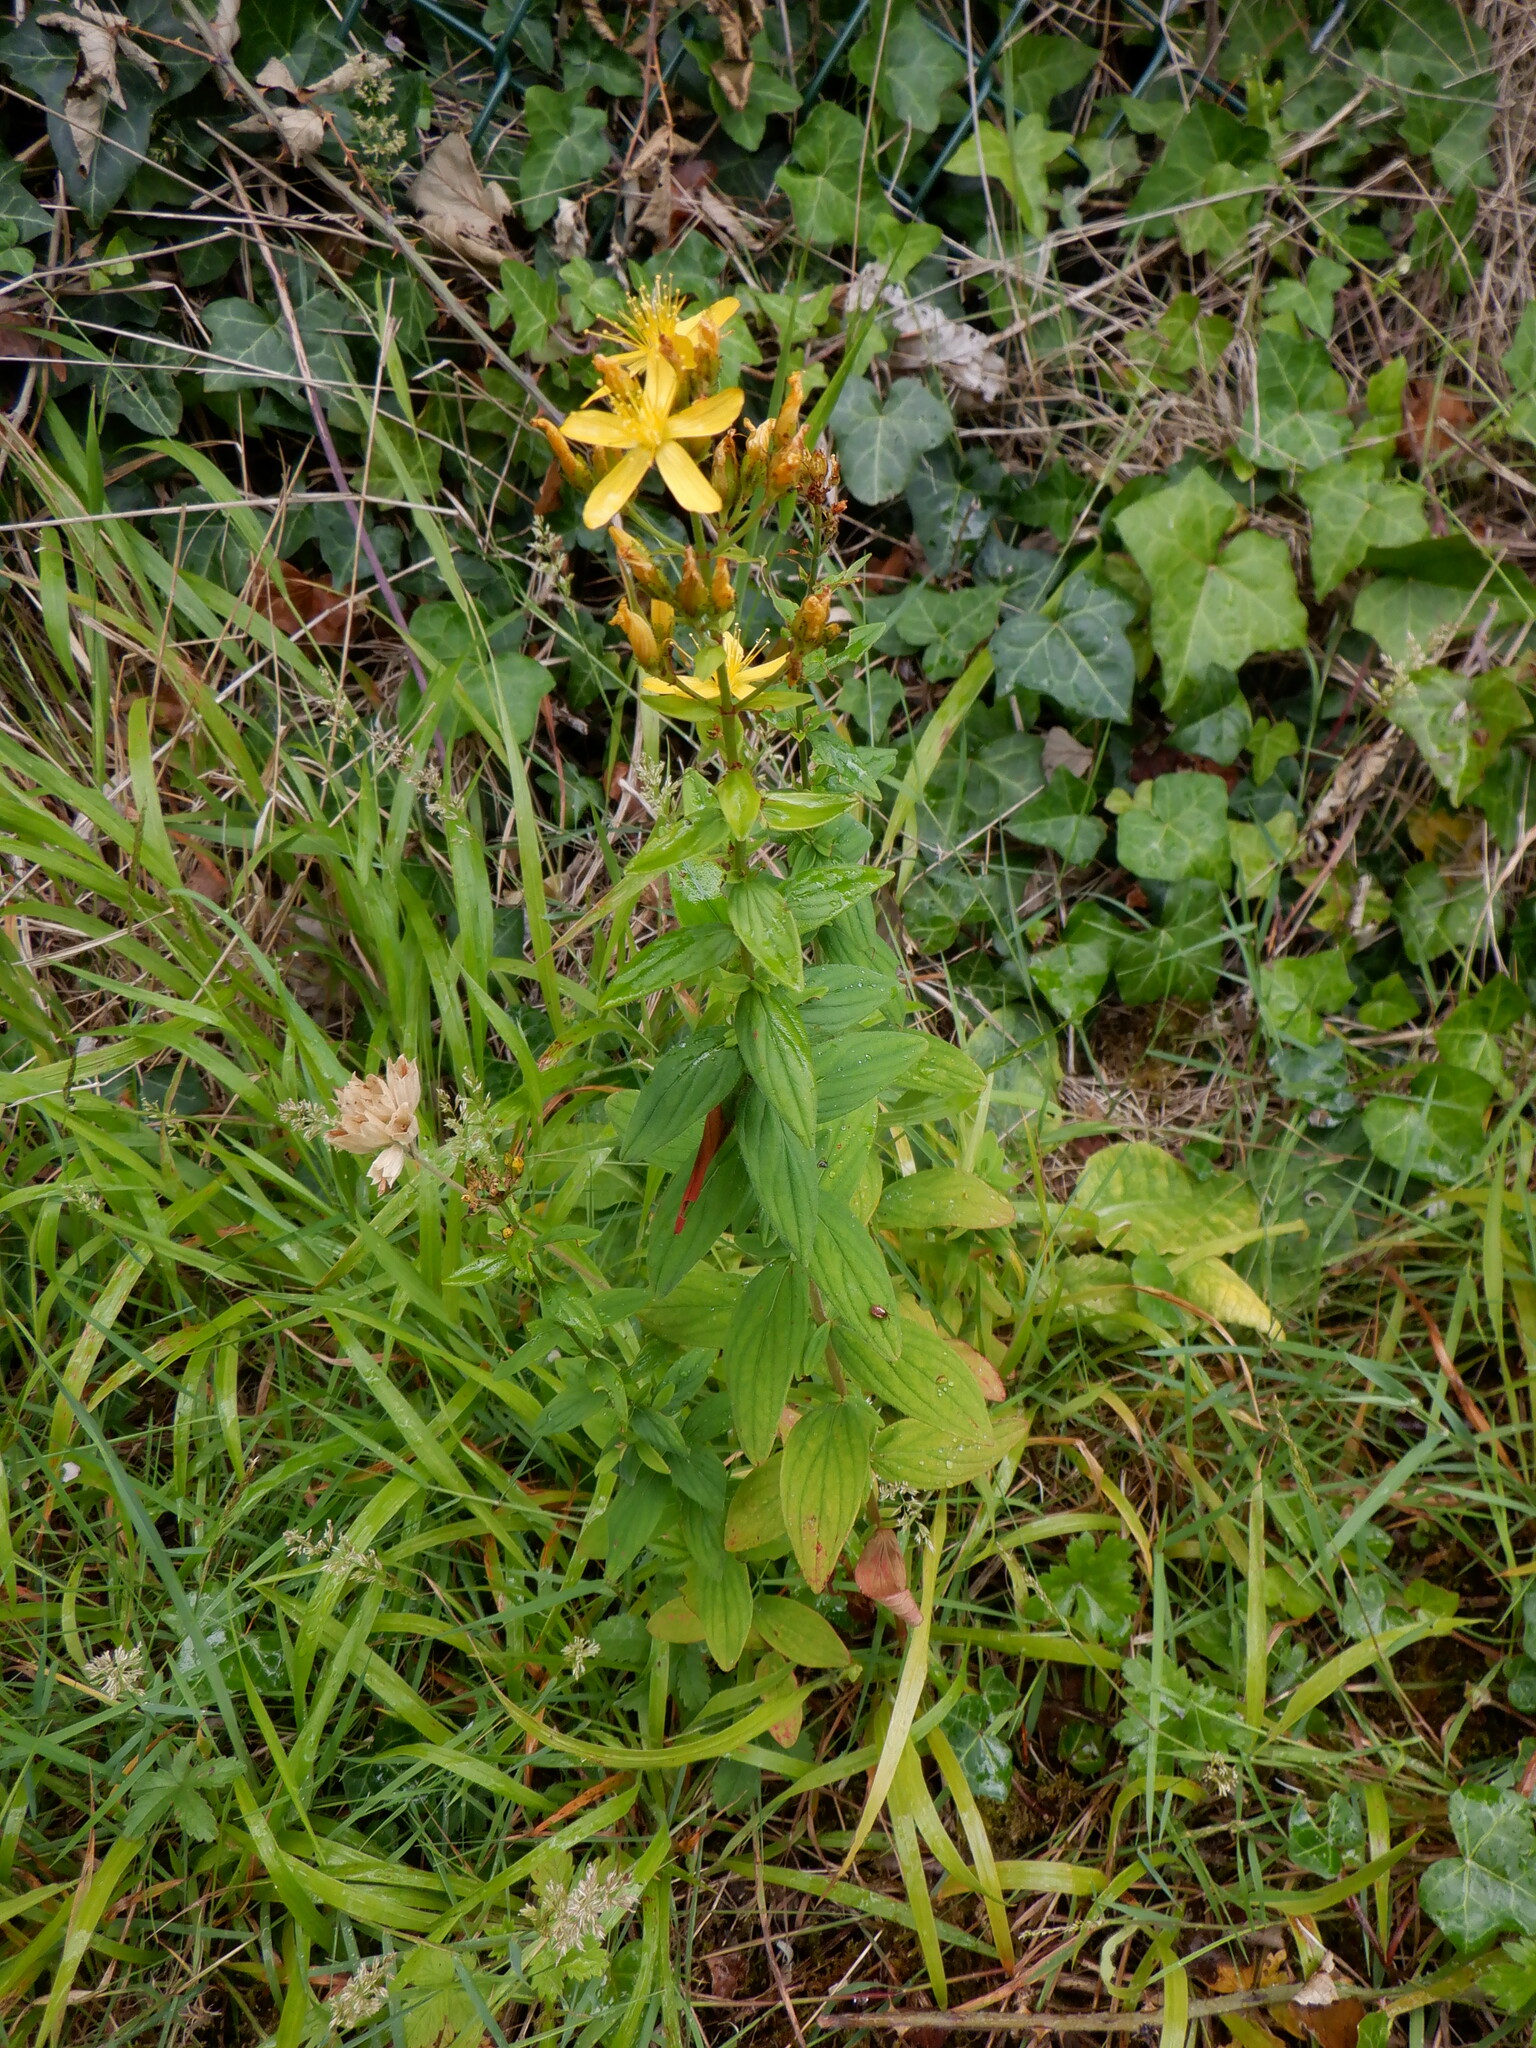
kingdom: Plantae
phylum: Tracheophyta
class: Magnoliopsida
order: Malpighiales
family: Hypericaceae
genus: Hypericum
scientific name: Hypericum hirsutum
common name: Hairy st. john's-wort
